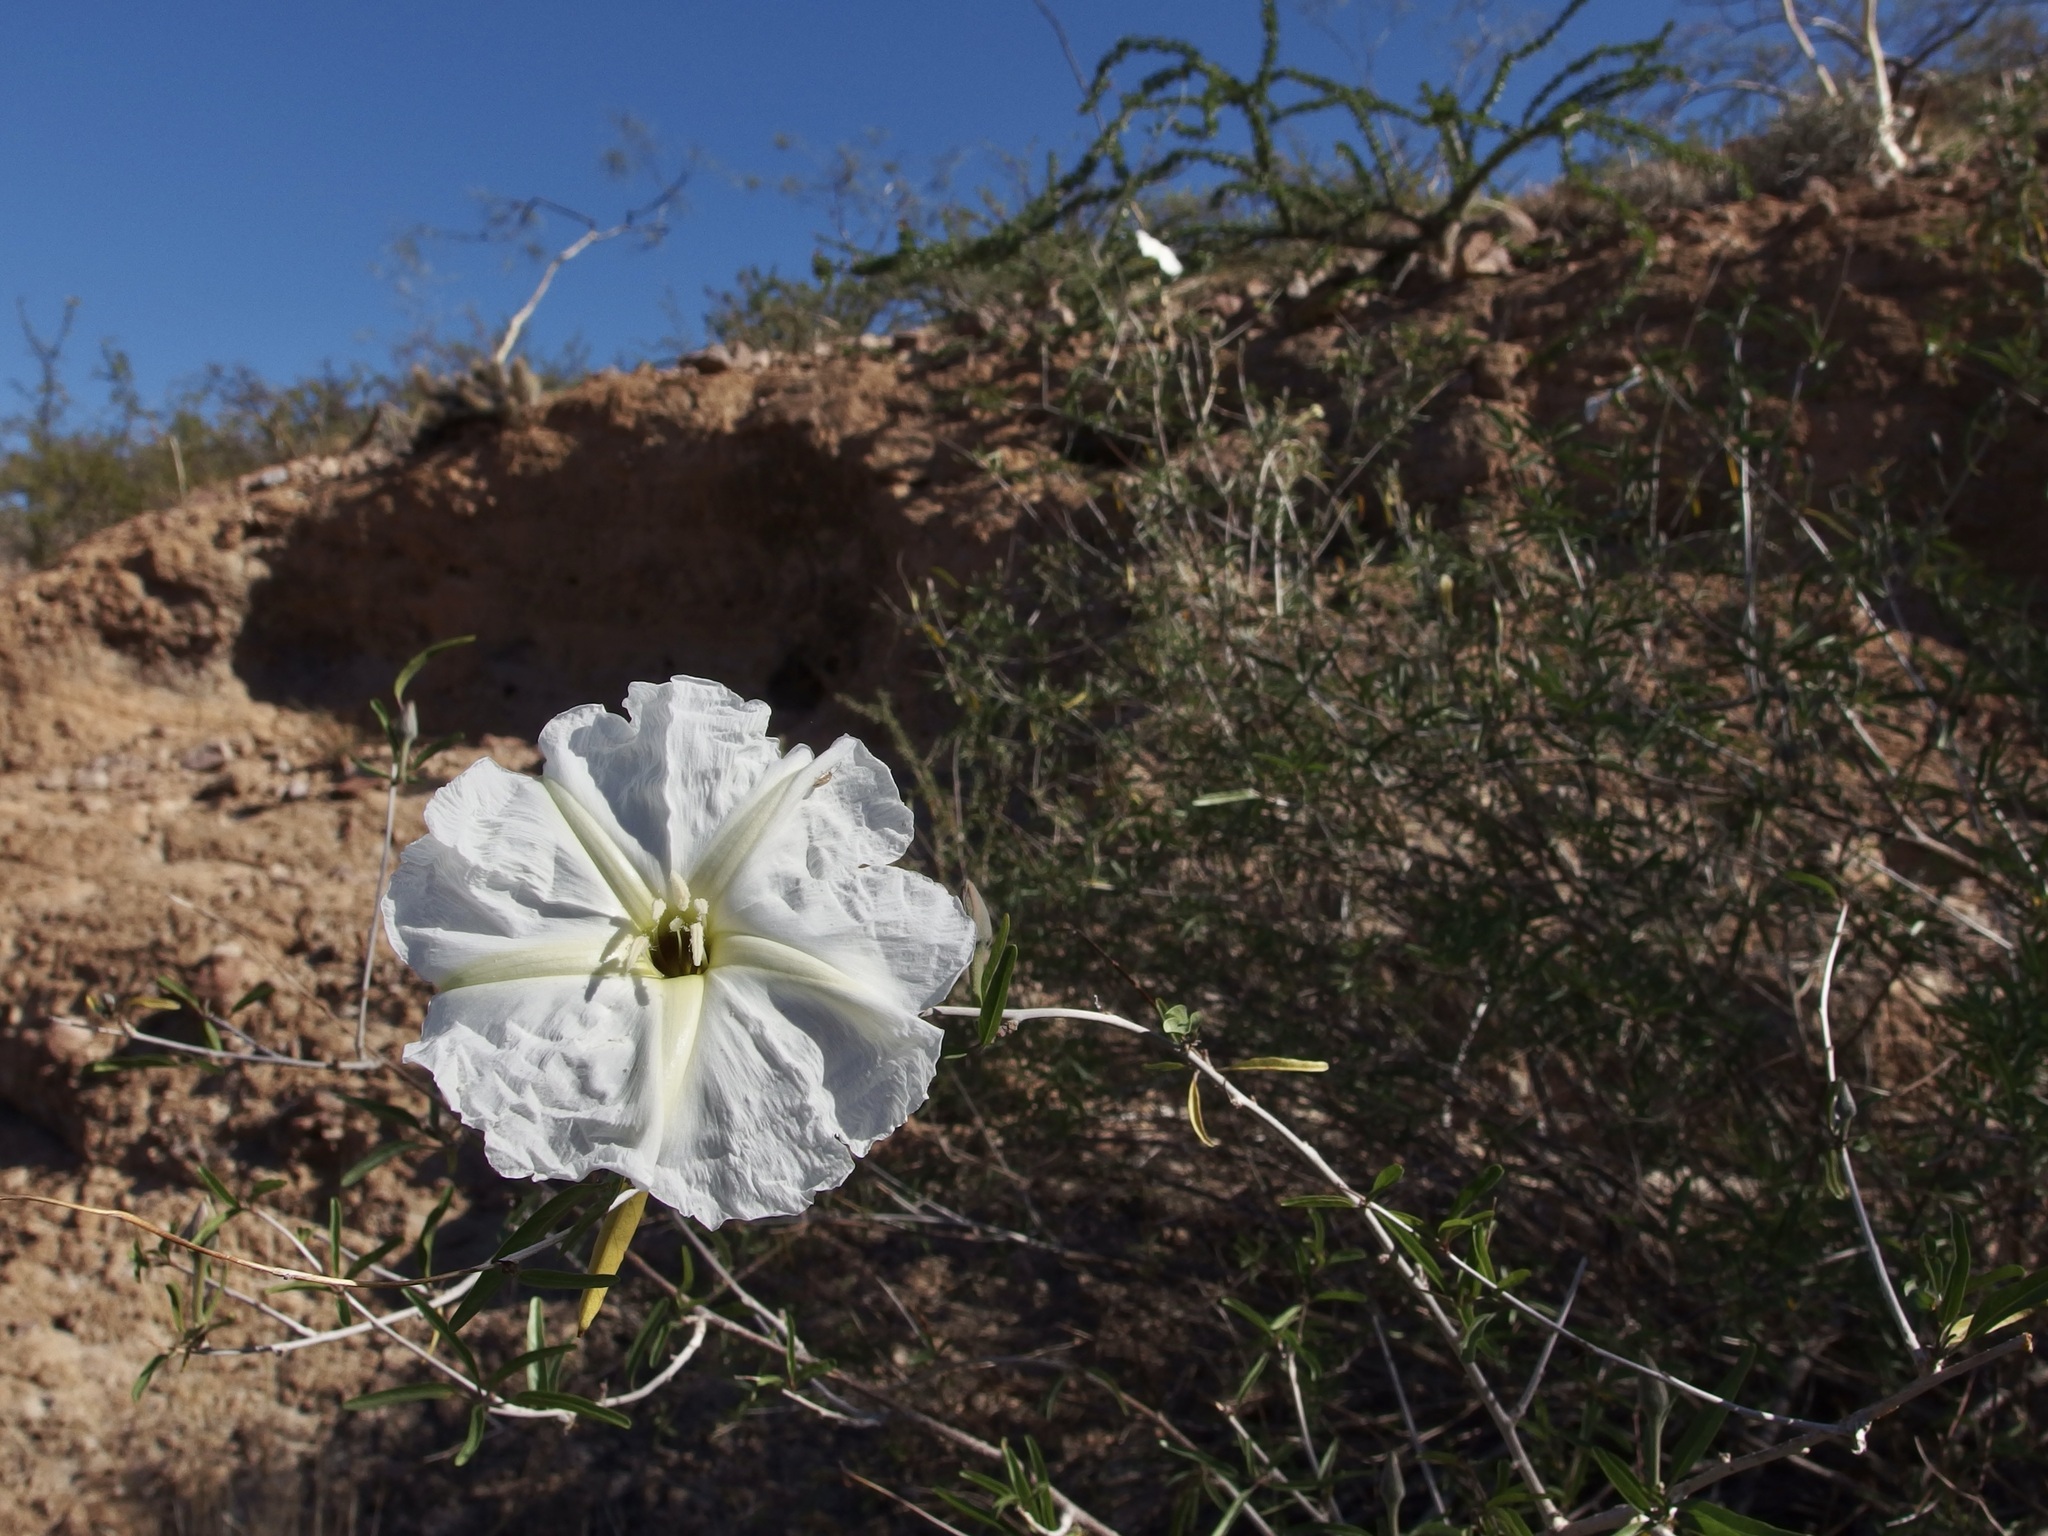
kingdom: Plantae
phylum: Tracheophyta
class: Magnoliopsida
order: Solanales
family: Convolvulaceae
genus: Ipomoea
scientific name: Ipomoea seaania
